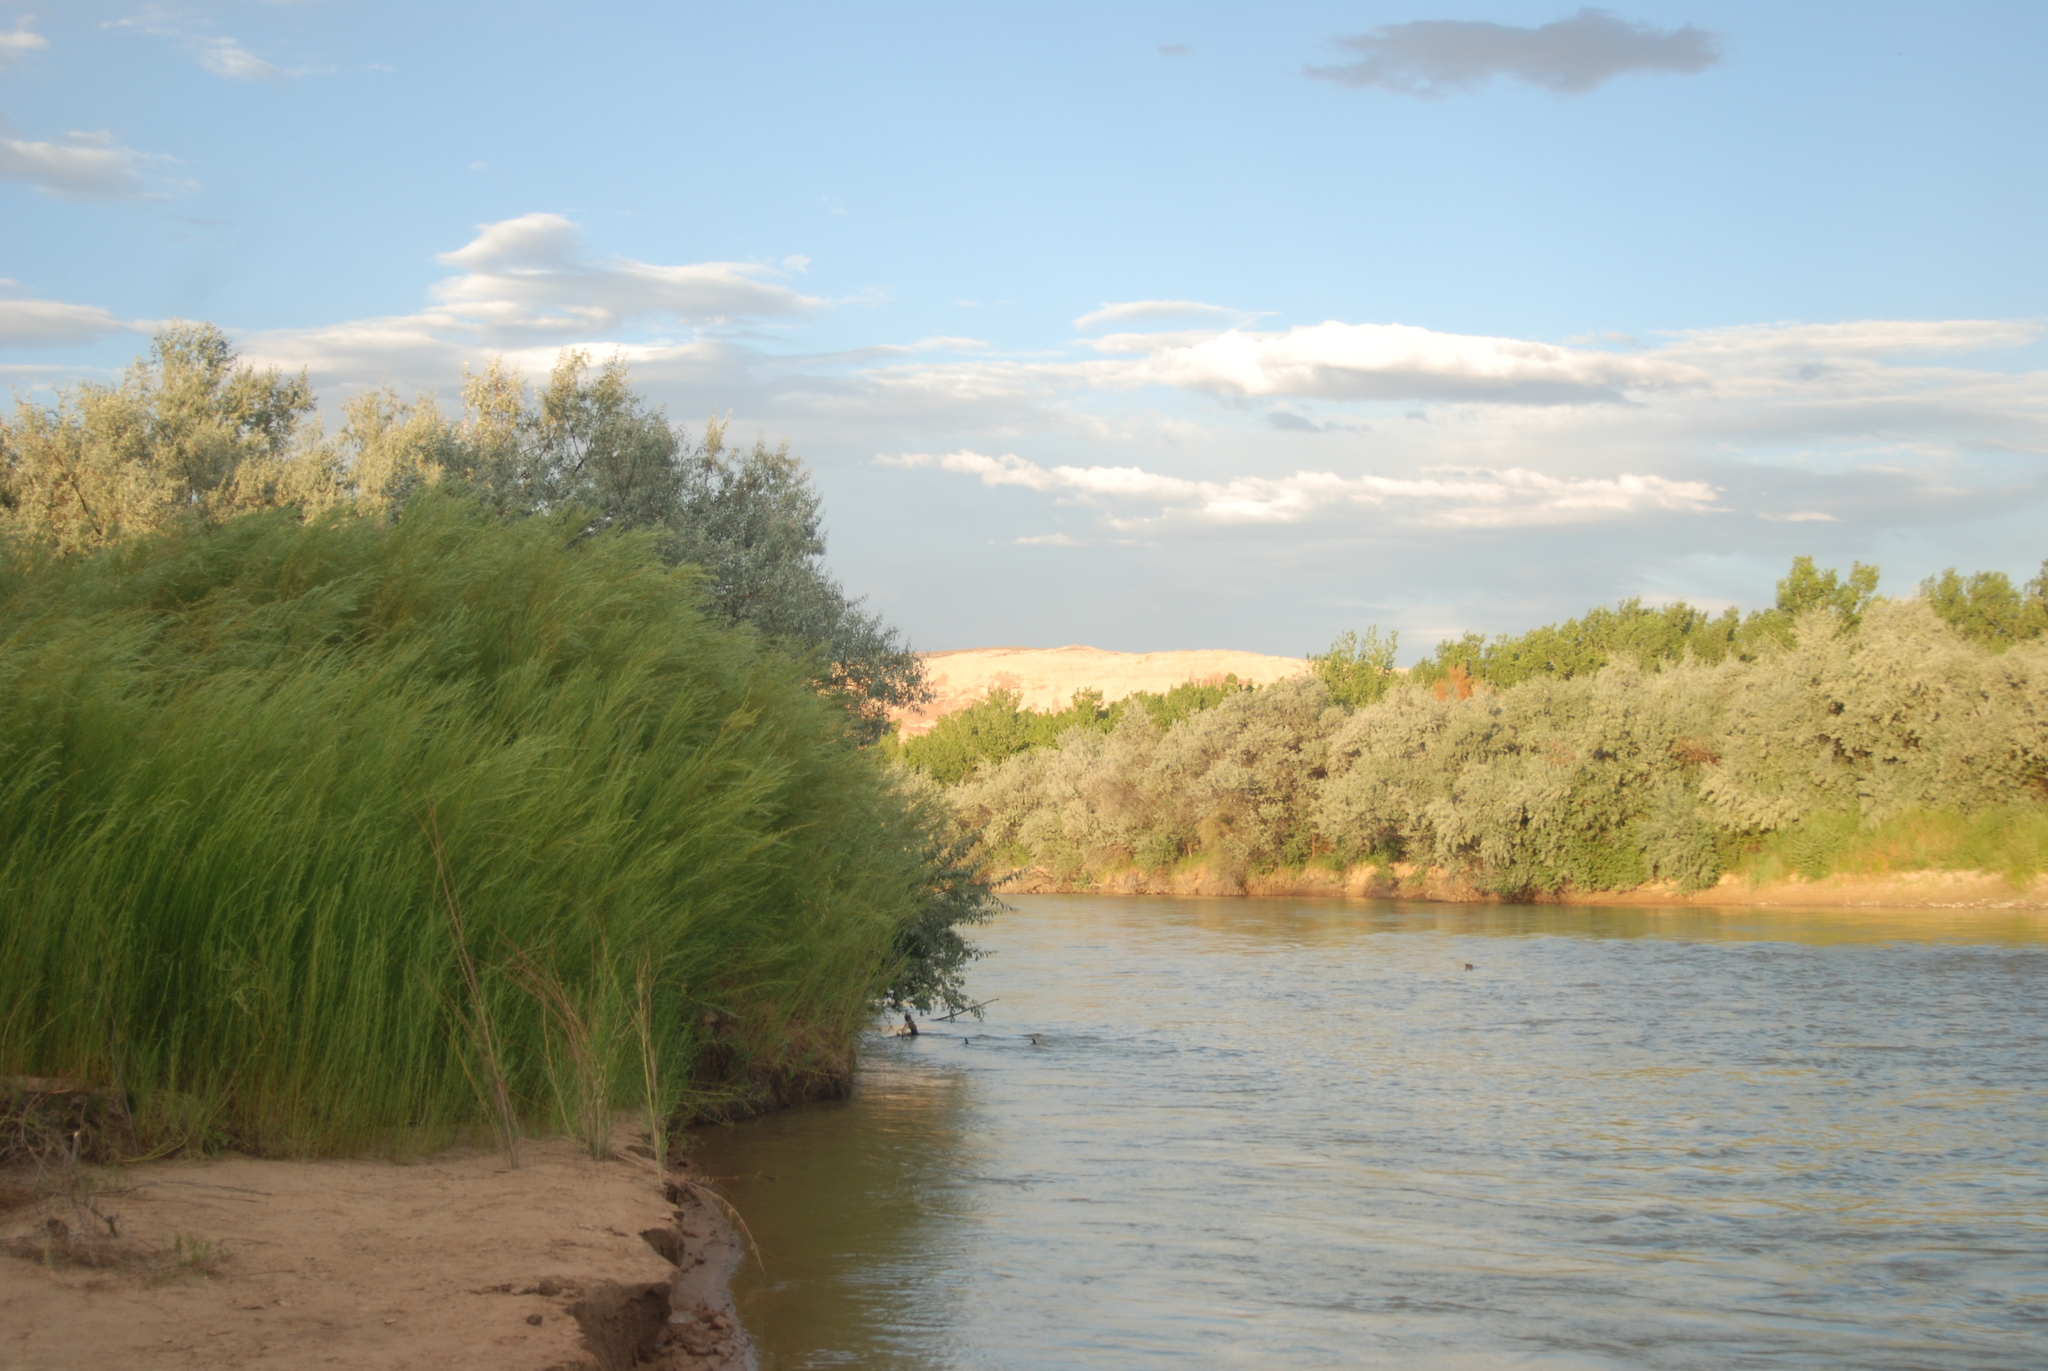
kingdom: Plantae
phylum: Tracheophyta
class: Magnoliopsida
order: Rosales
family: Elaeagnaceae
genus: Elaeagnus
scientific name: Elaeagnus angustifolia
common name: Russian olive
